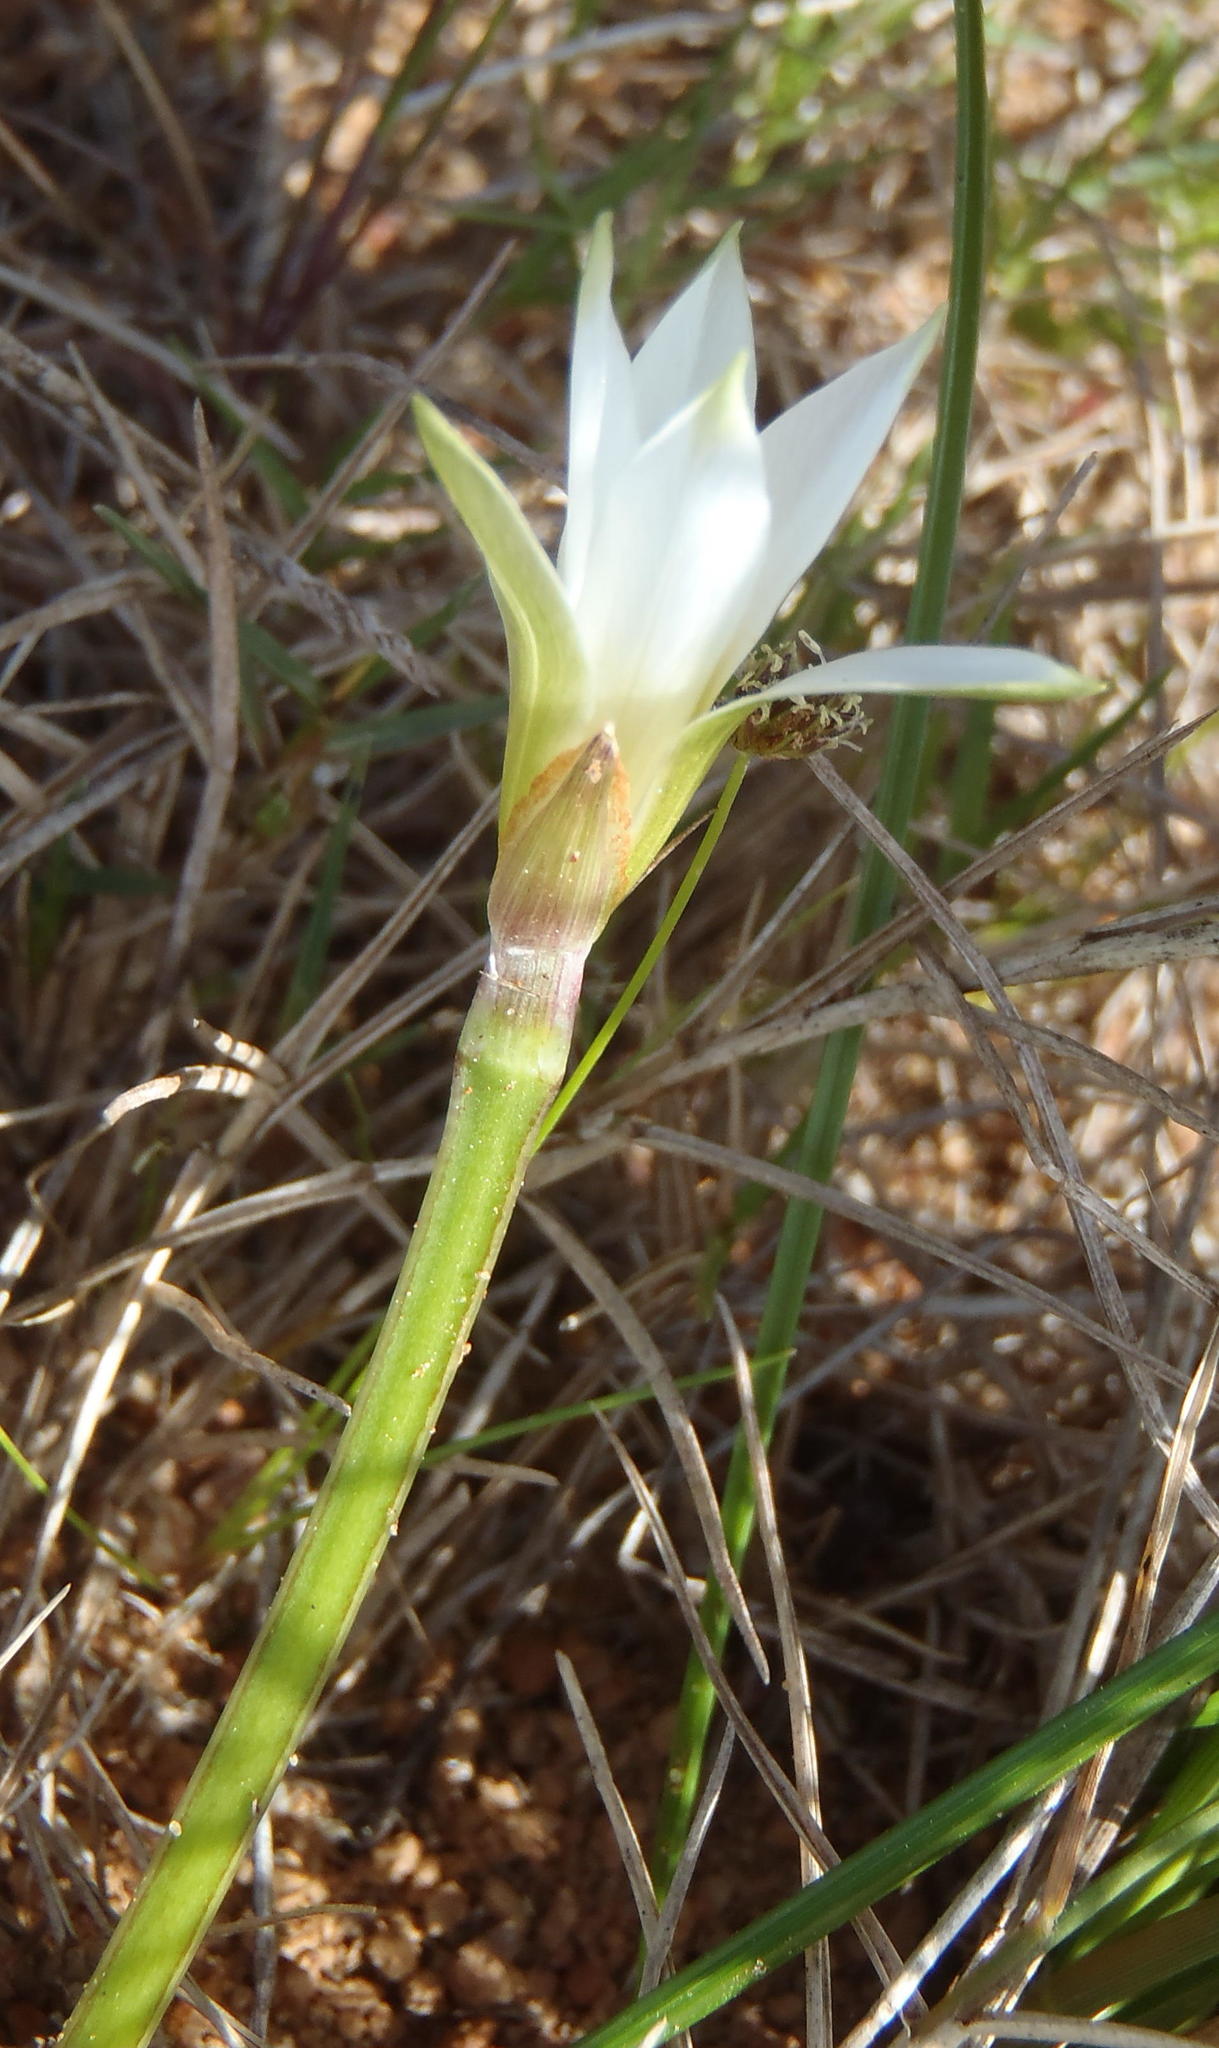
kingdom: Plantae
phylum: Tracheophyta
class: Liliopsida
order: Asparagales
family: Iridaceae
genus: Romulea
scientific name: Romulea flava
